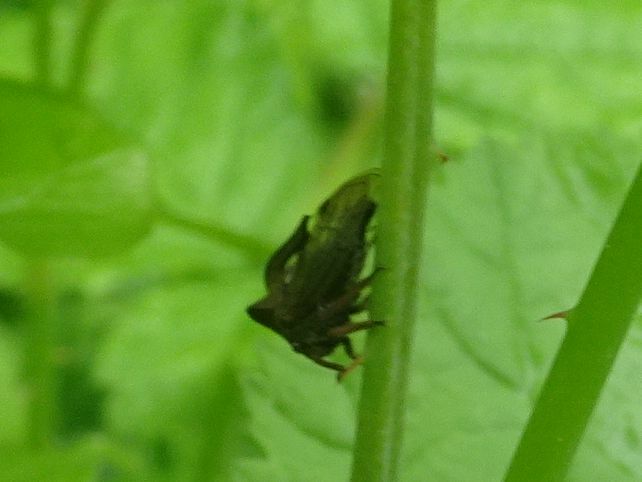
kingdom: Animalia
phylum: Arthropoda
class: Insecta
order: Hemiptera
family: Membracidae
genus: Centrotus
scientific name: Centrotus cornuta
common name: Treehopper
